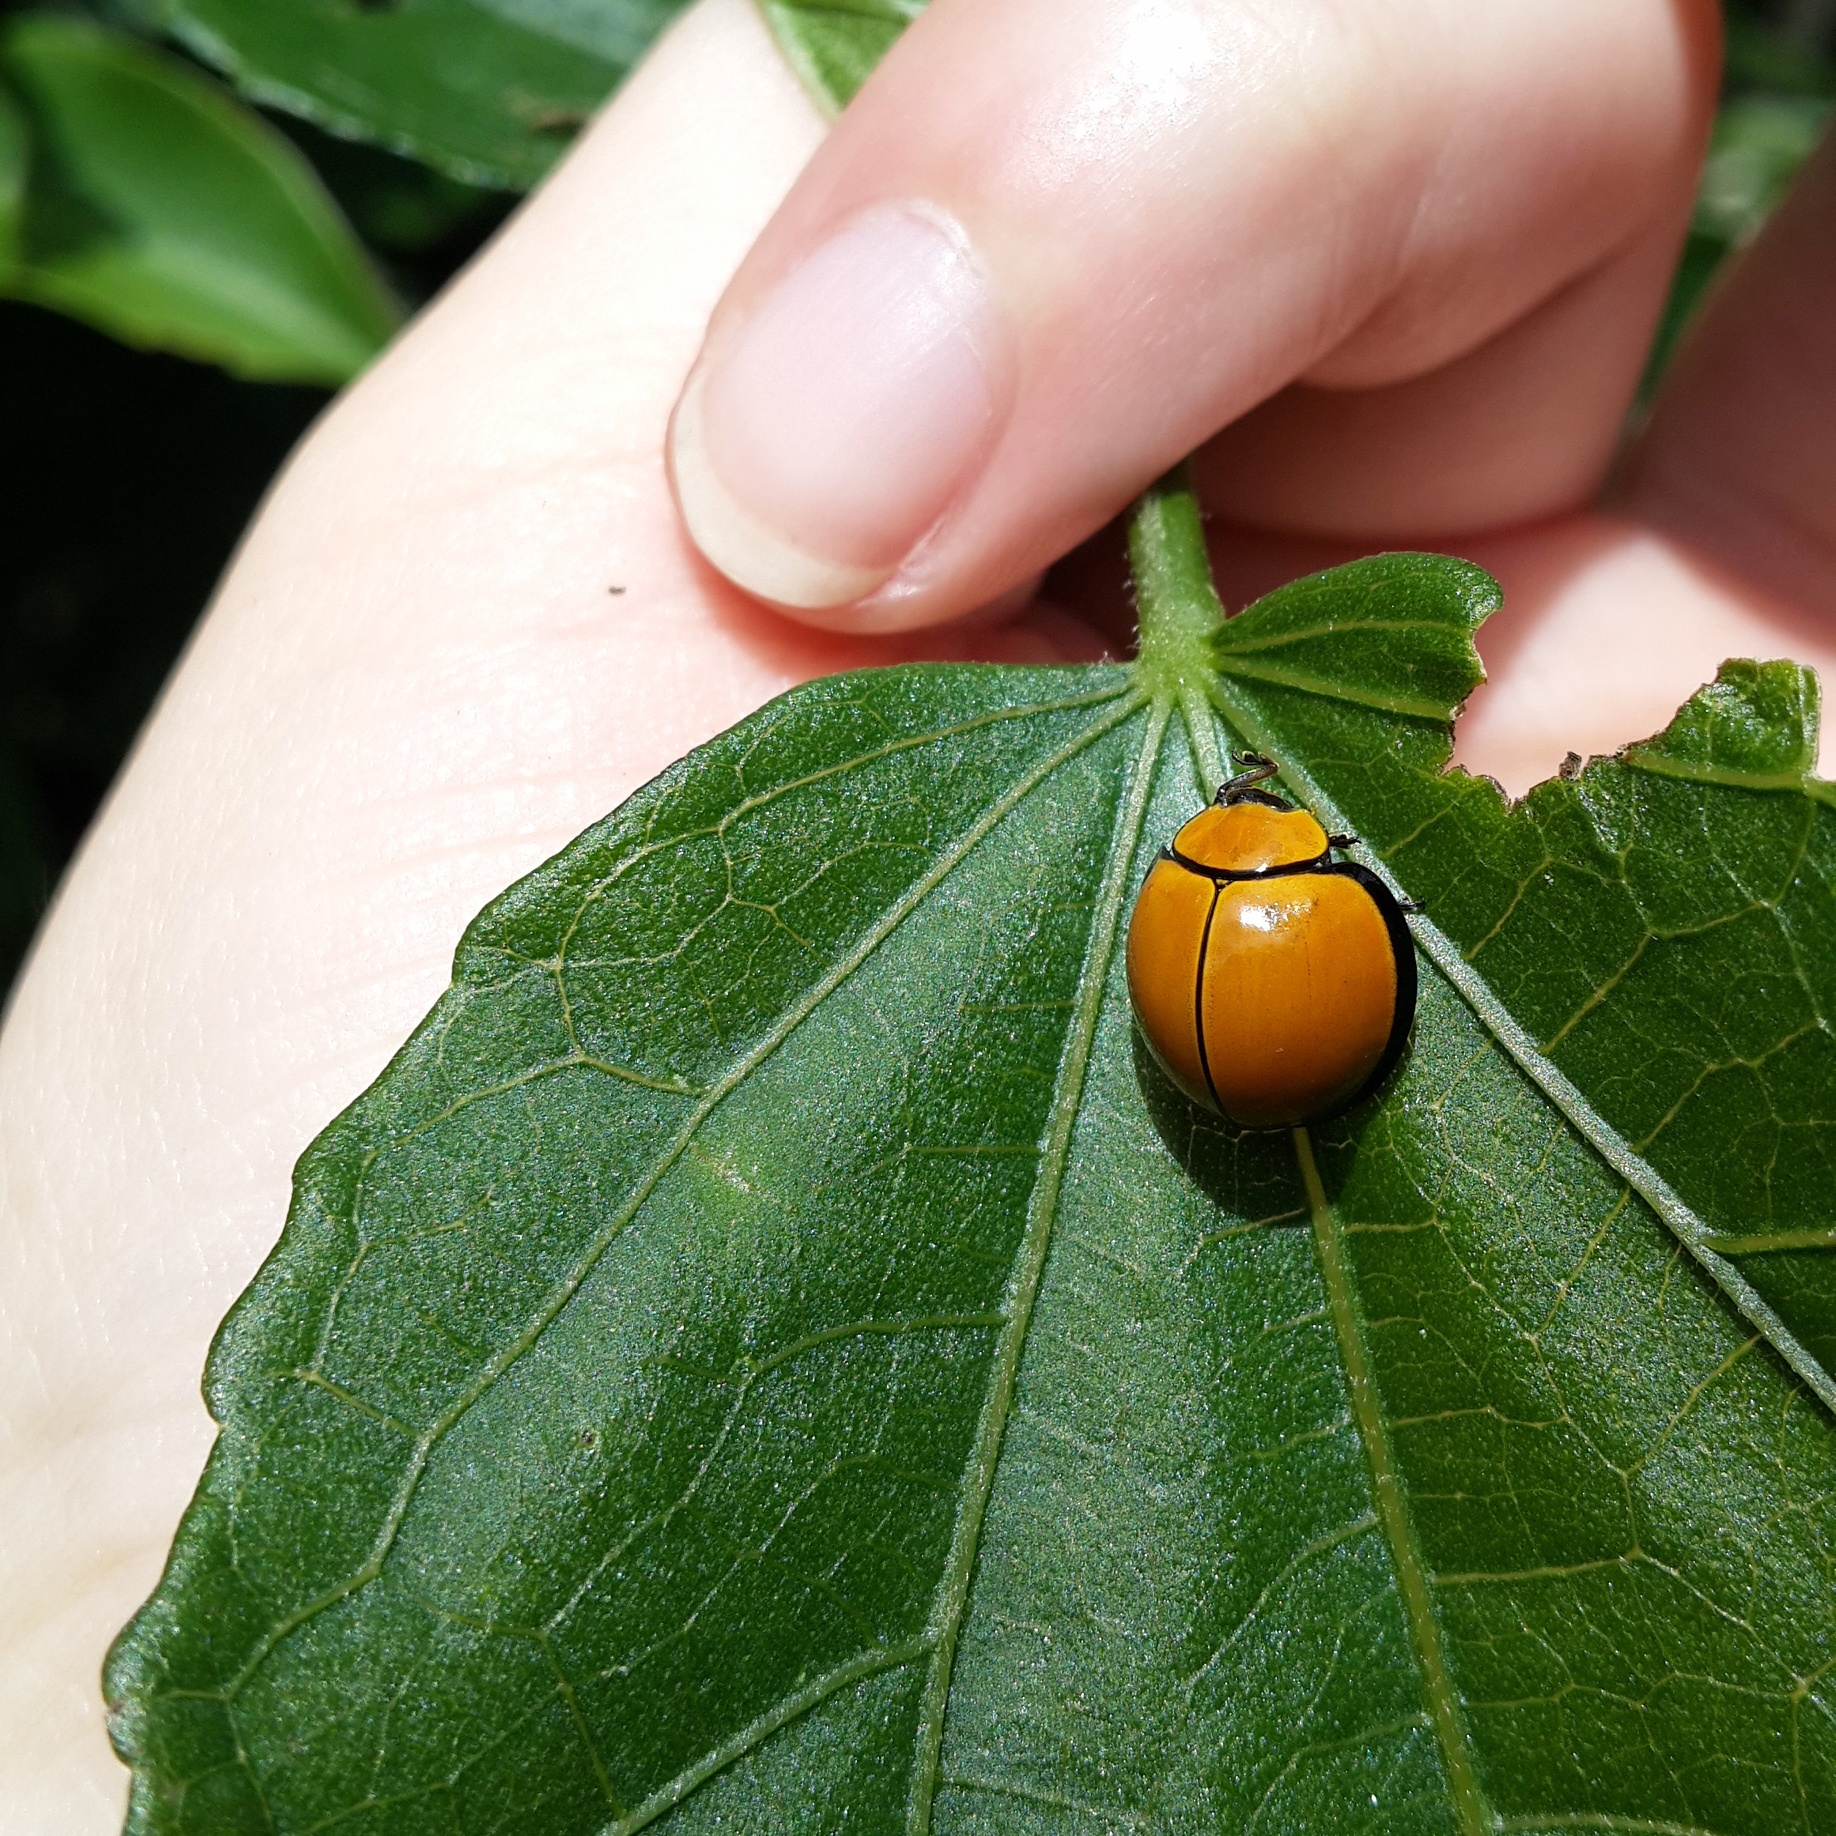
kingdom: Animalia
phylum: Arthropoda
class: Insecta
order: Coleoptera
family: Coccinellidae
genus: Neda
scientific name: Neda
